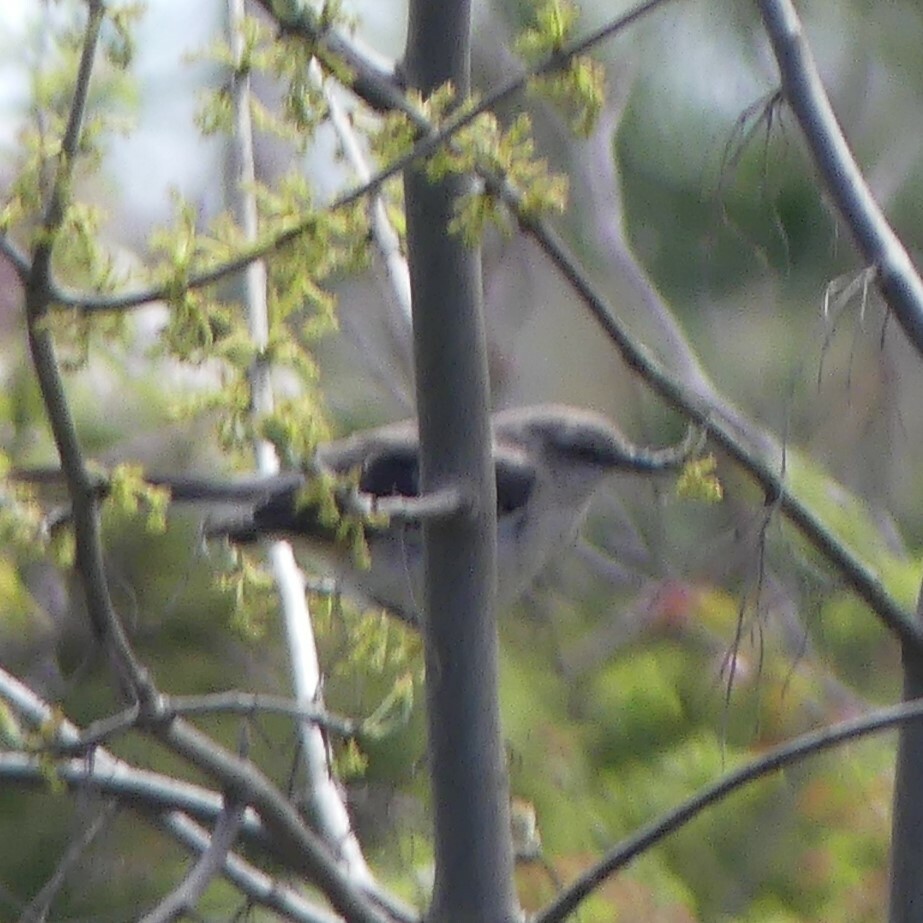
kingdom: Animalia
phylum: Chordata
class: Aves
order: Passeriformes
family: Mimidae
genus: Mimus
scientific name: Mimus polyglottos
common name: Northern mockingbird
